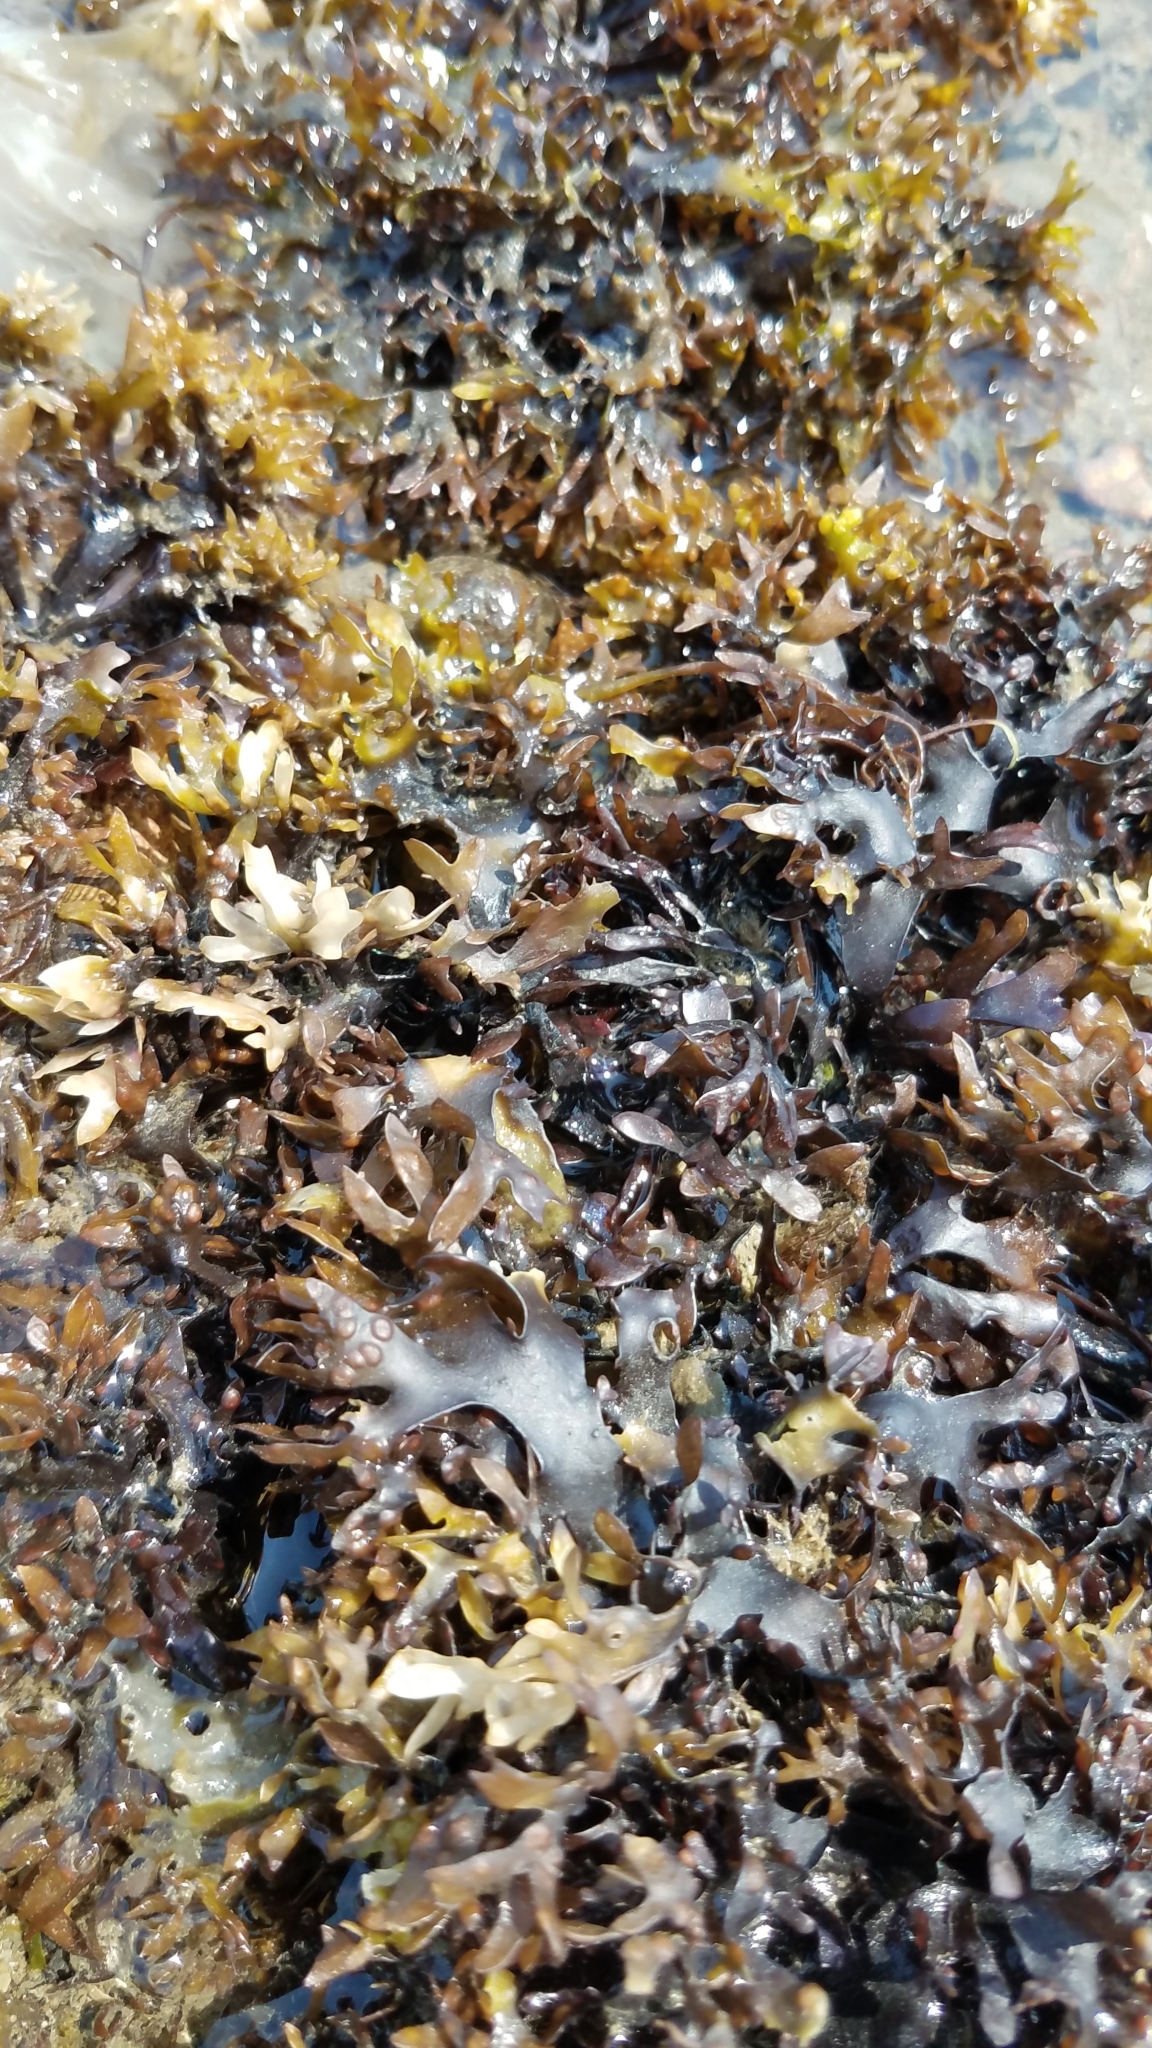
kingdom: Plantae
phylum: Rhodophyta
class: Florideophyceae
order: Gigartinales
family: Gigartinaceae
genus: Chondrus
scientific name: Chondrus crispus
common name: Carrageen
